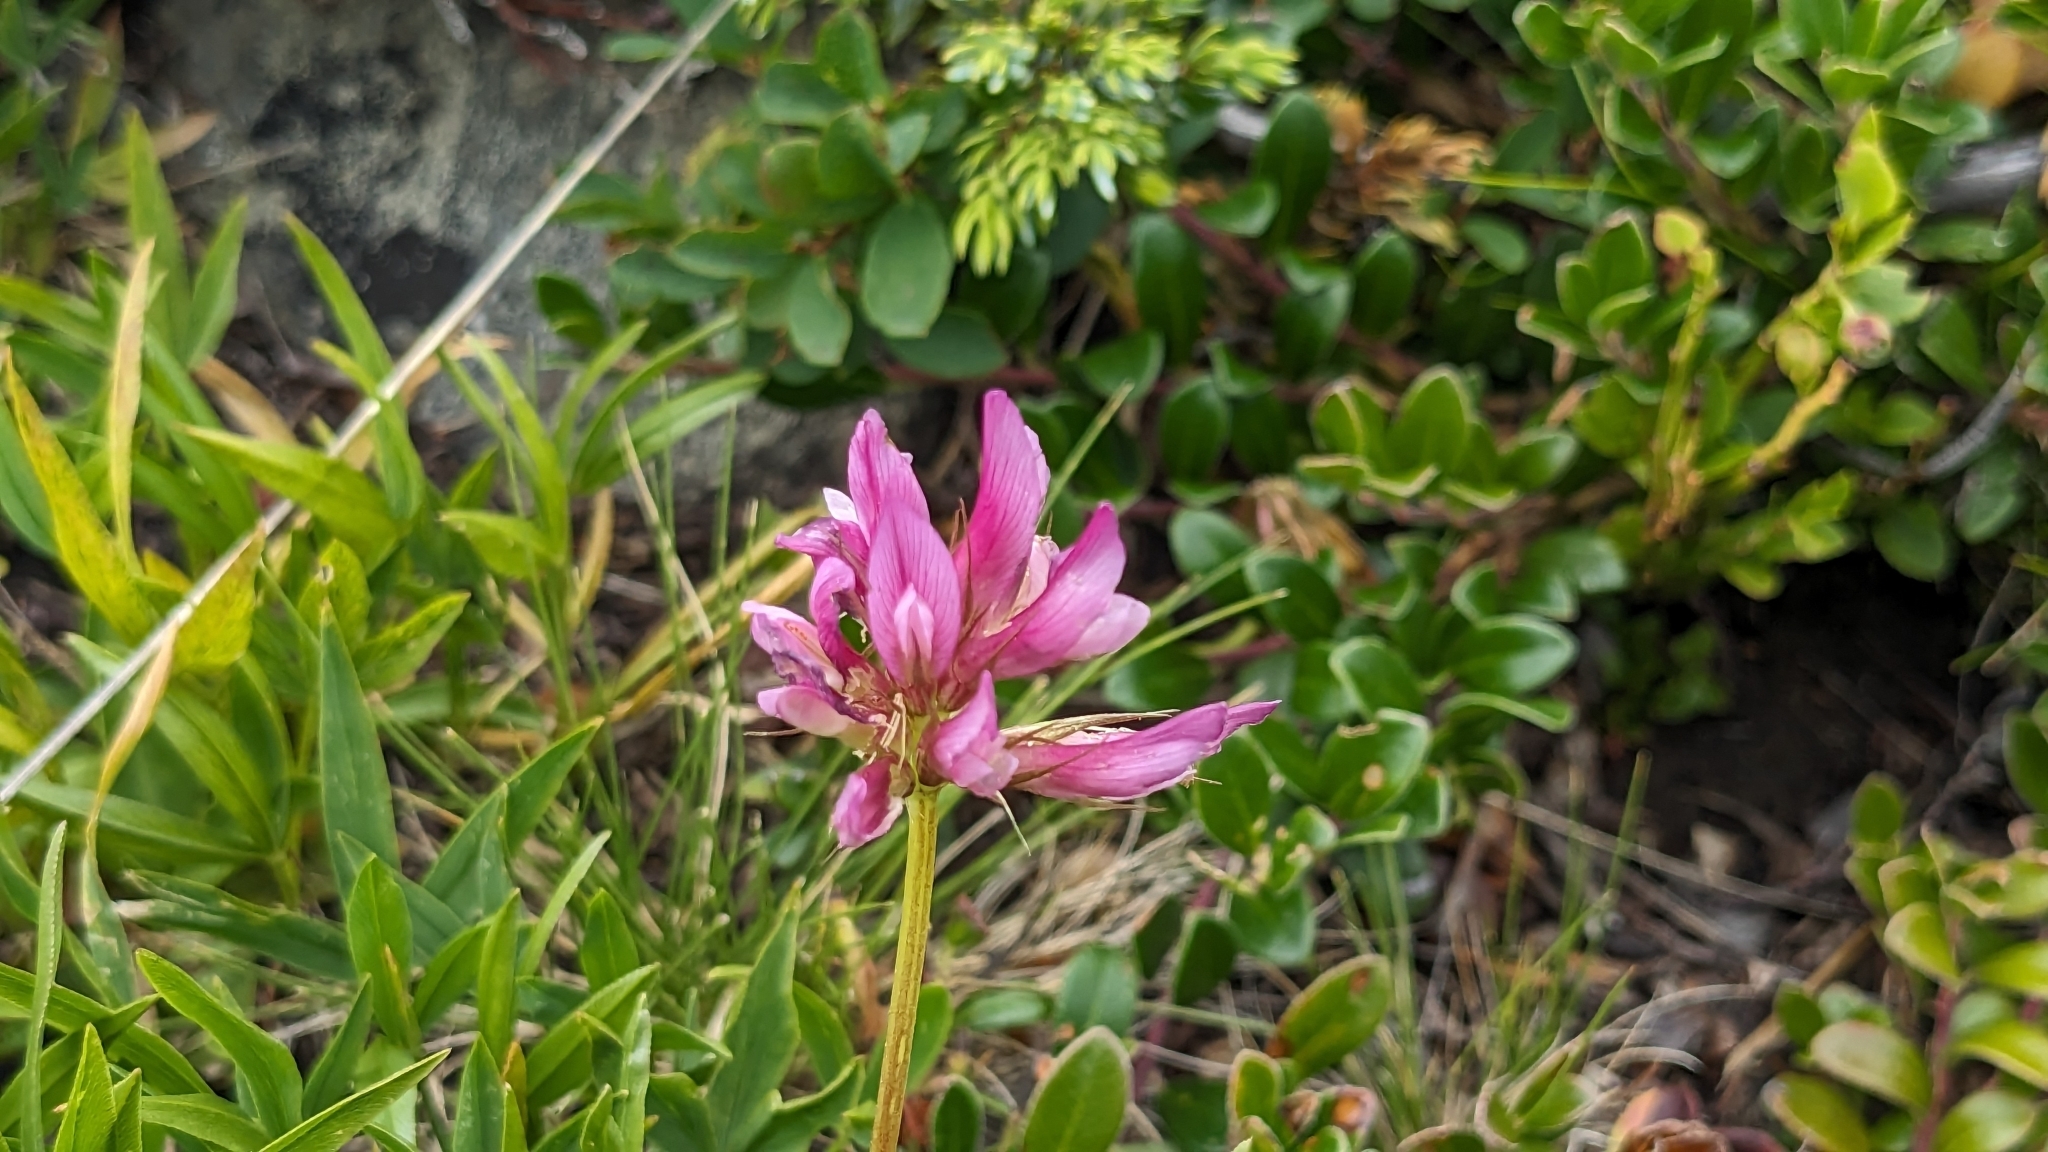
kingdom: Plantae
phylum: Tracheophyta
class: Magnoliopsida
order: Fabales
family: Fabaceae
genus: Trifolium
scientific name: Trifolium alpinum
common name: Alpine clover
